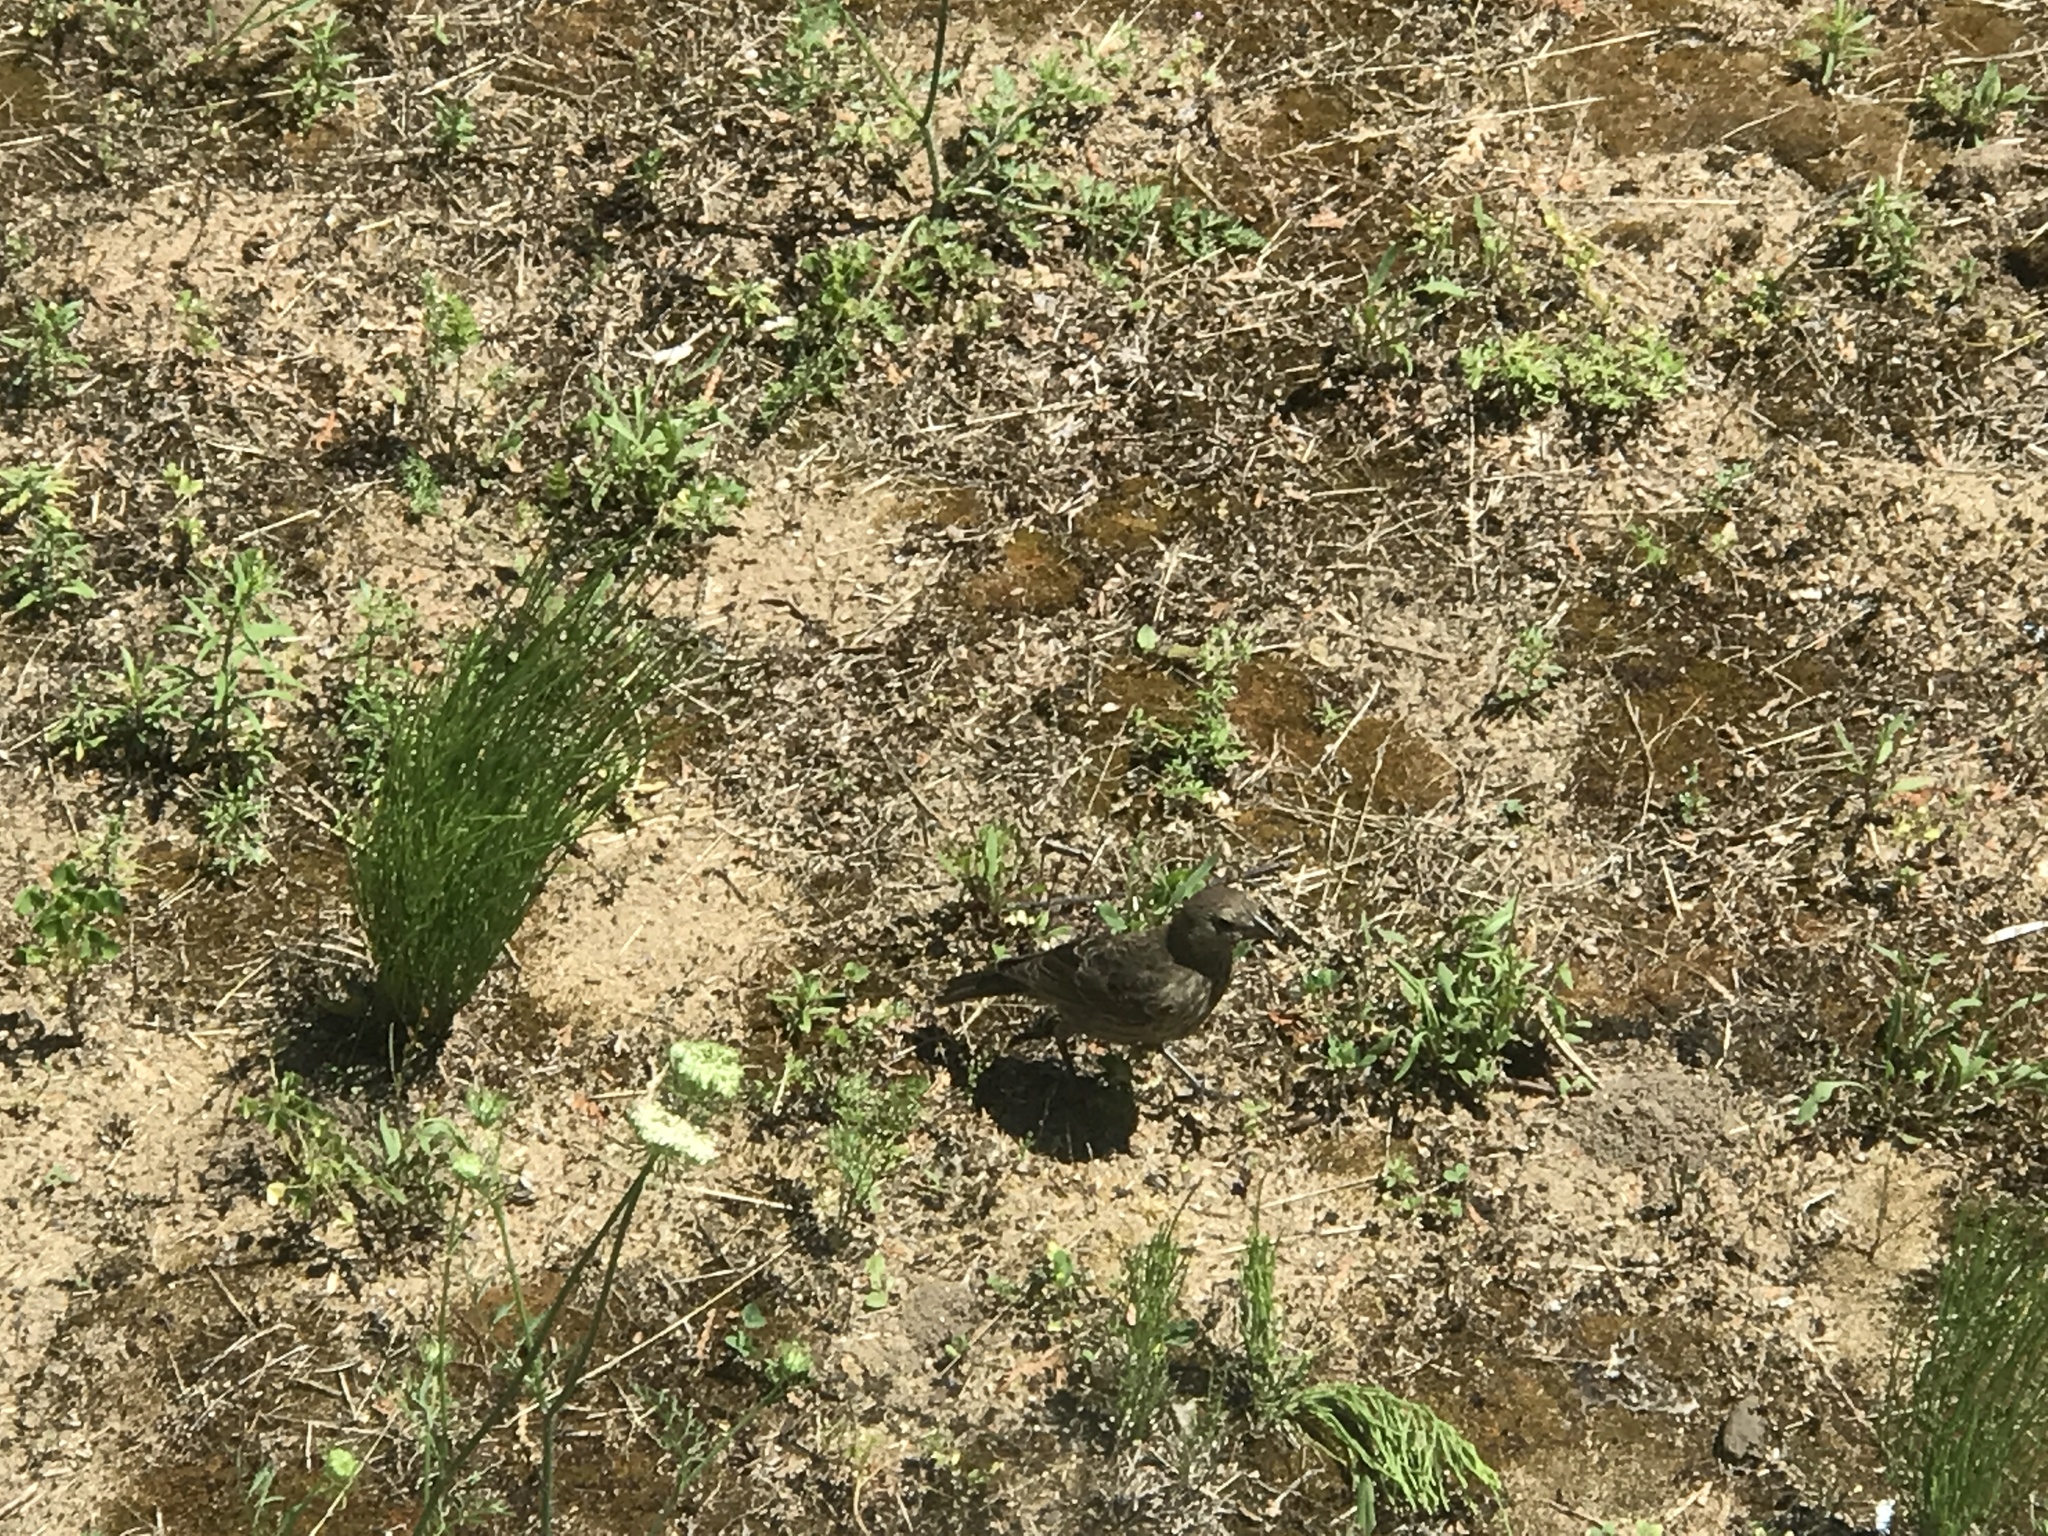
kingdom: Animalia
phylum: Chordata
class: Aves
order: Passeriformes
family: Icteridae
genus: Molothrus
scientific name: Molothrus ater
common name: Brown-headed cowbird
